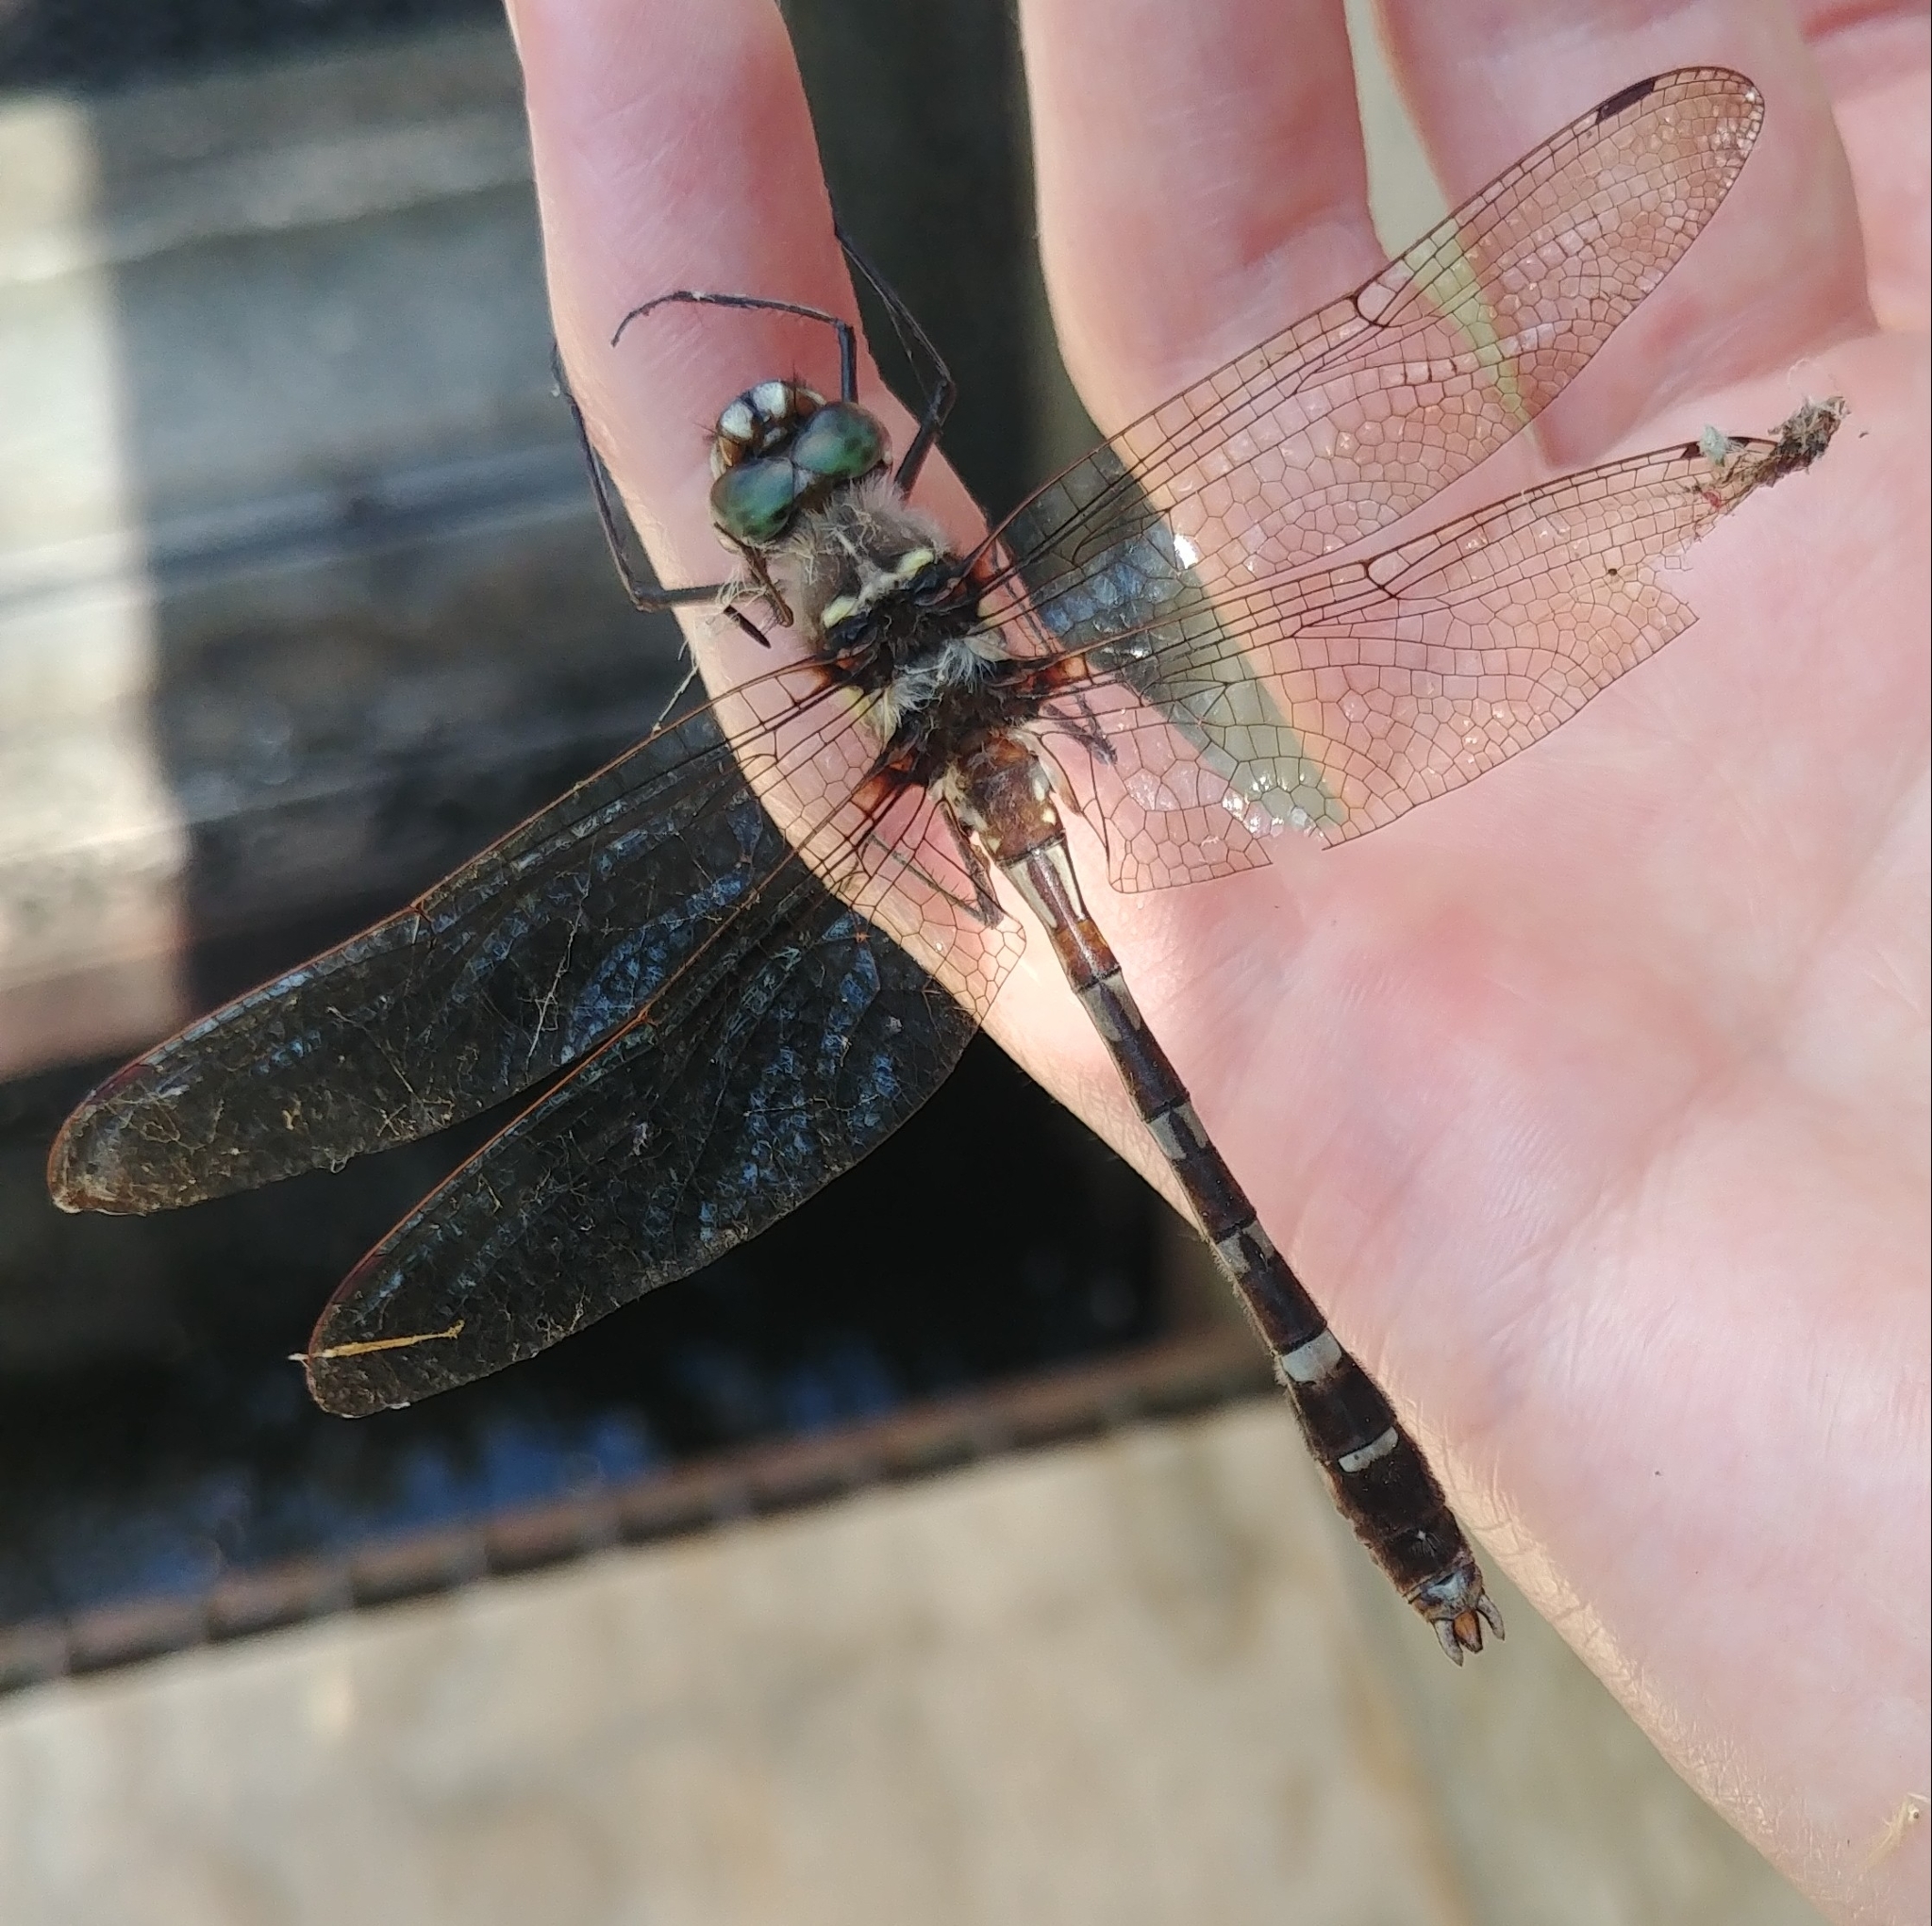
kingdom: Animalia
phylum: Arthropoda
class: Insecta
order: Odonata
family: Macromiidae
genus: Didymops
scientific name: Didymops transversa
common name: Stream cruiser
